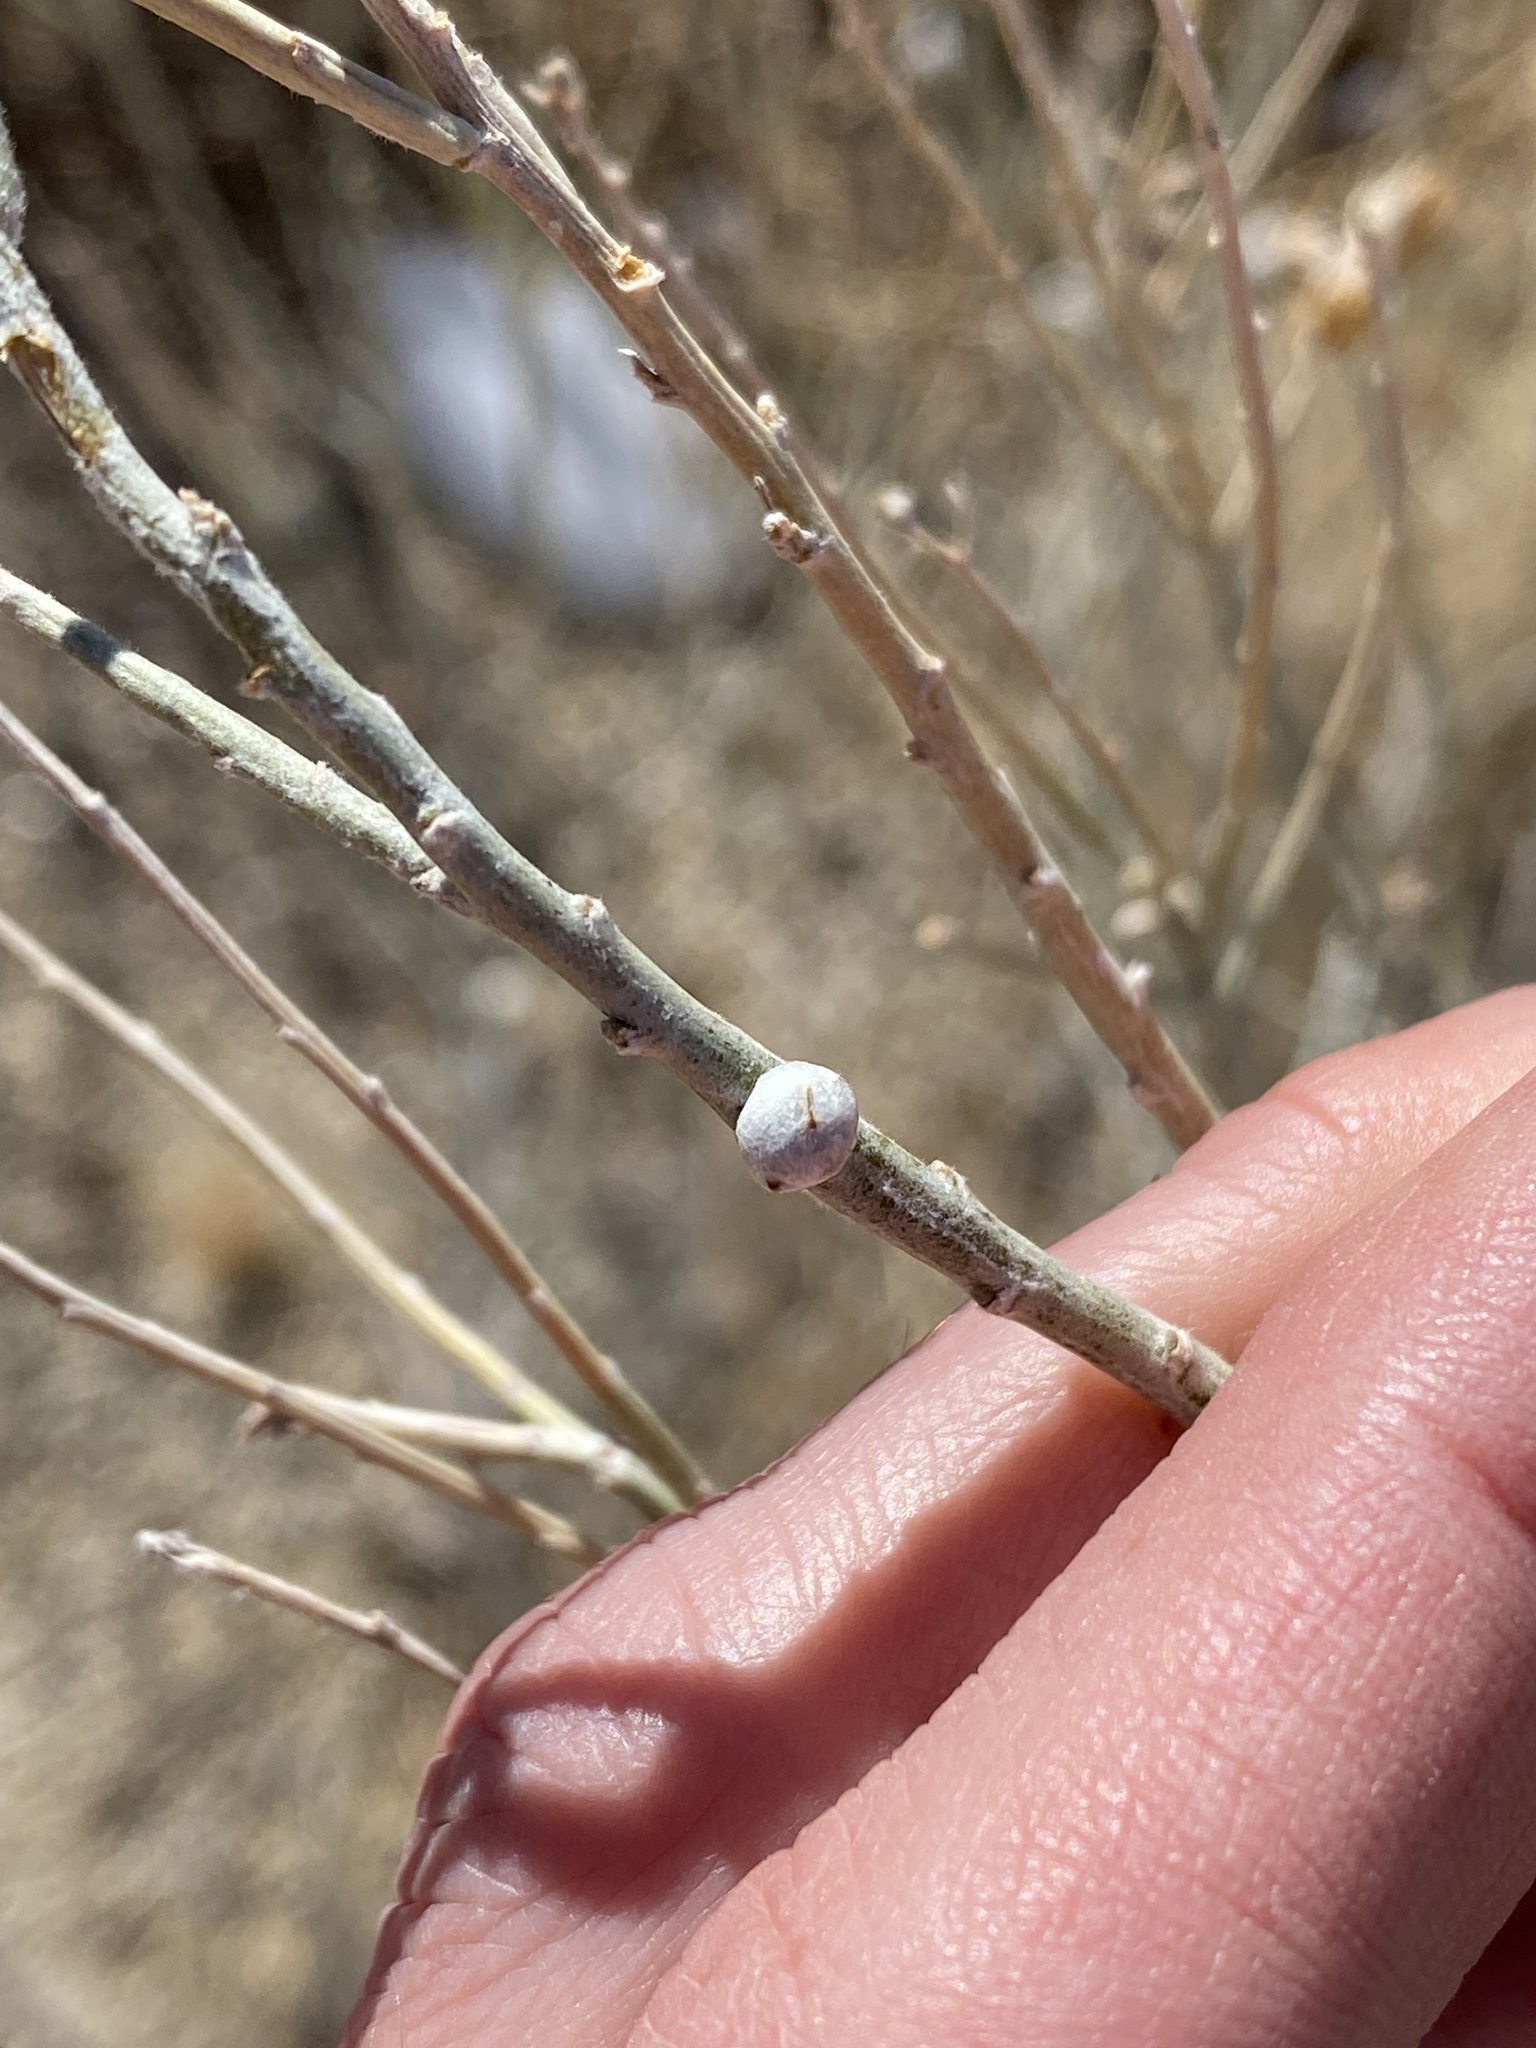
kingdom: Animalia
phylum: Arthropoda
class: Insecta
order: Diptera
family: Tephritidae
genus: Aciurina
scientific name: Aciurina trixa
